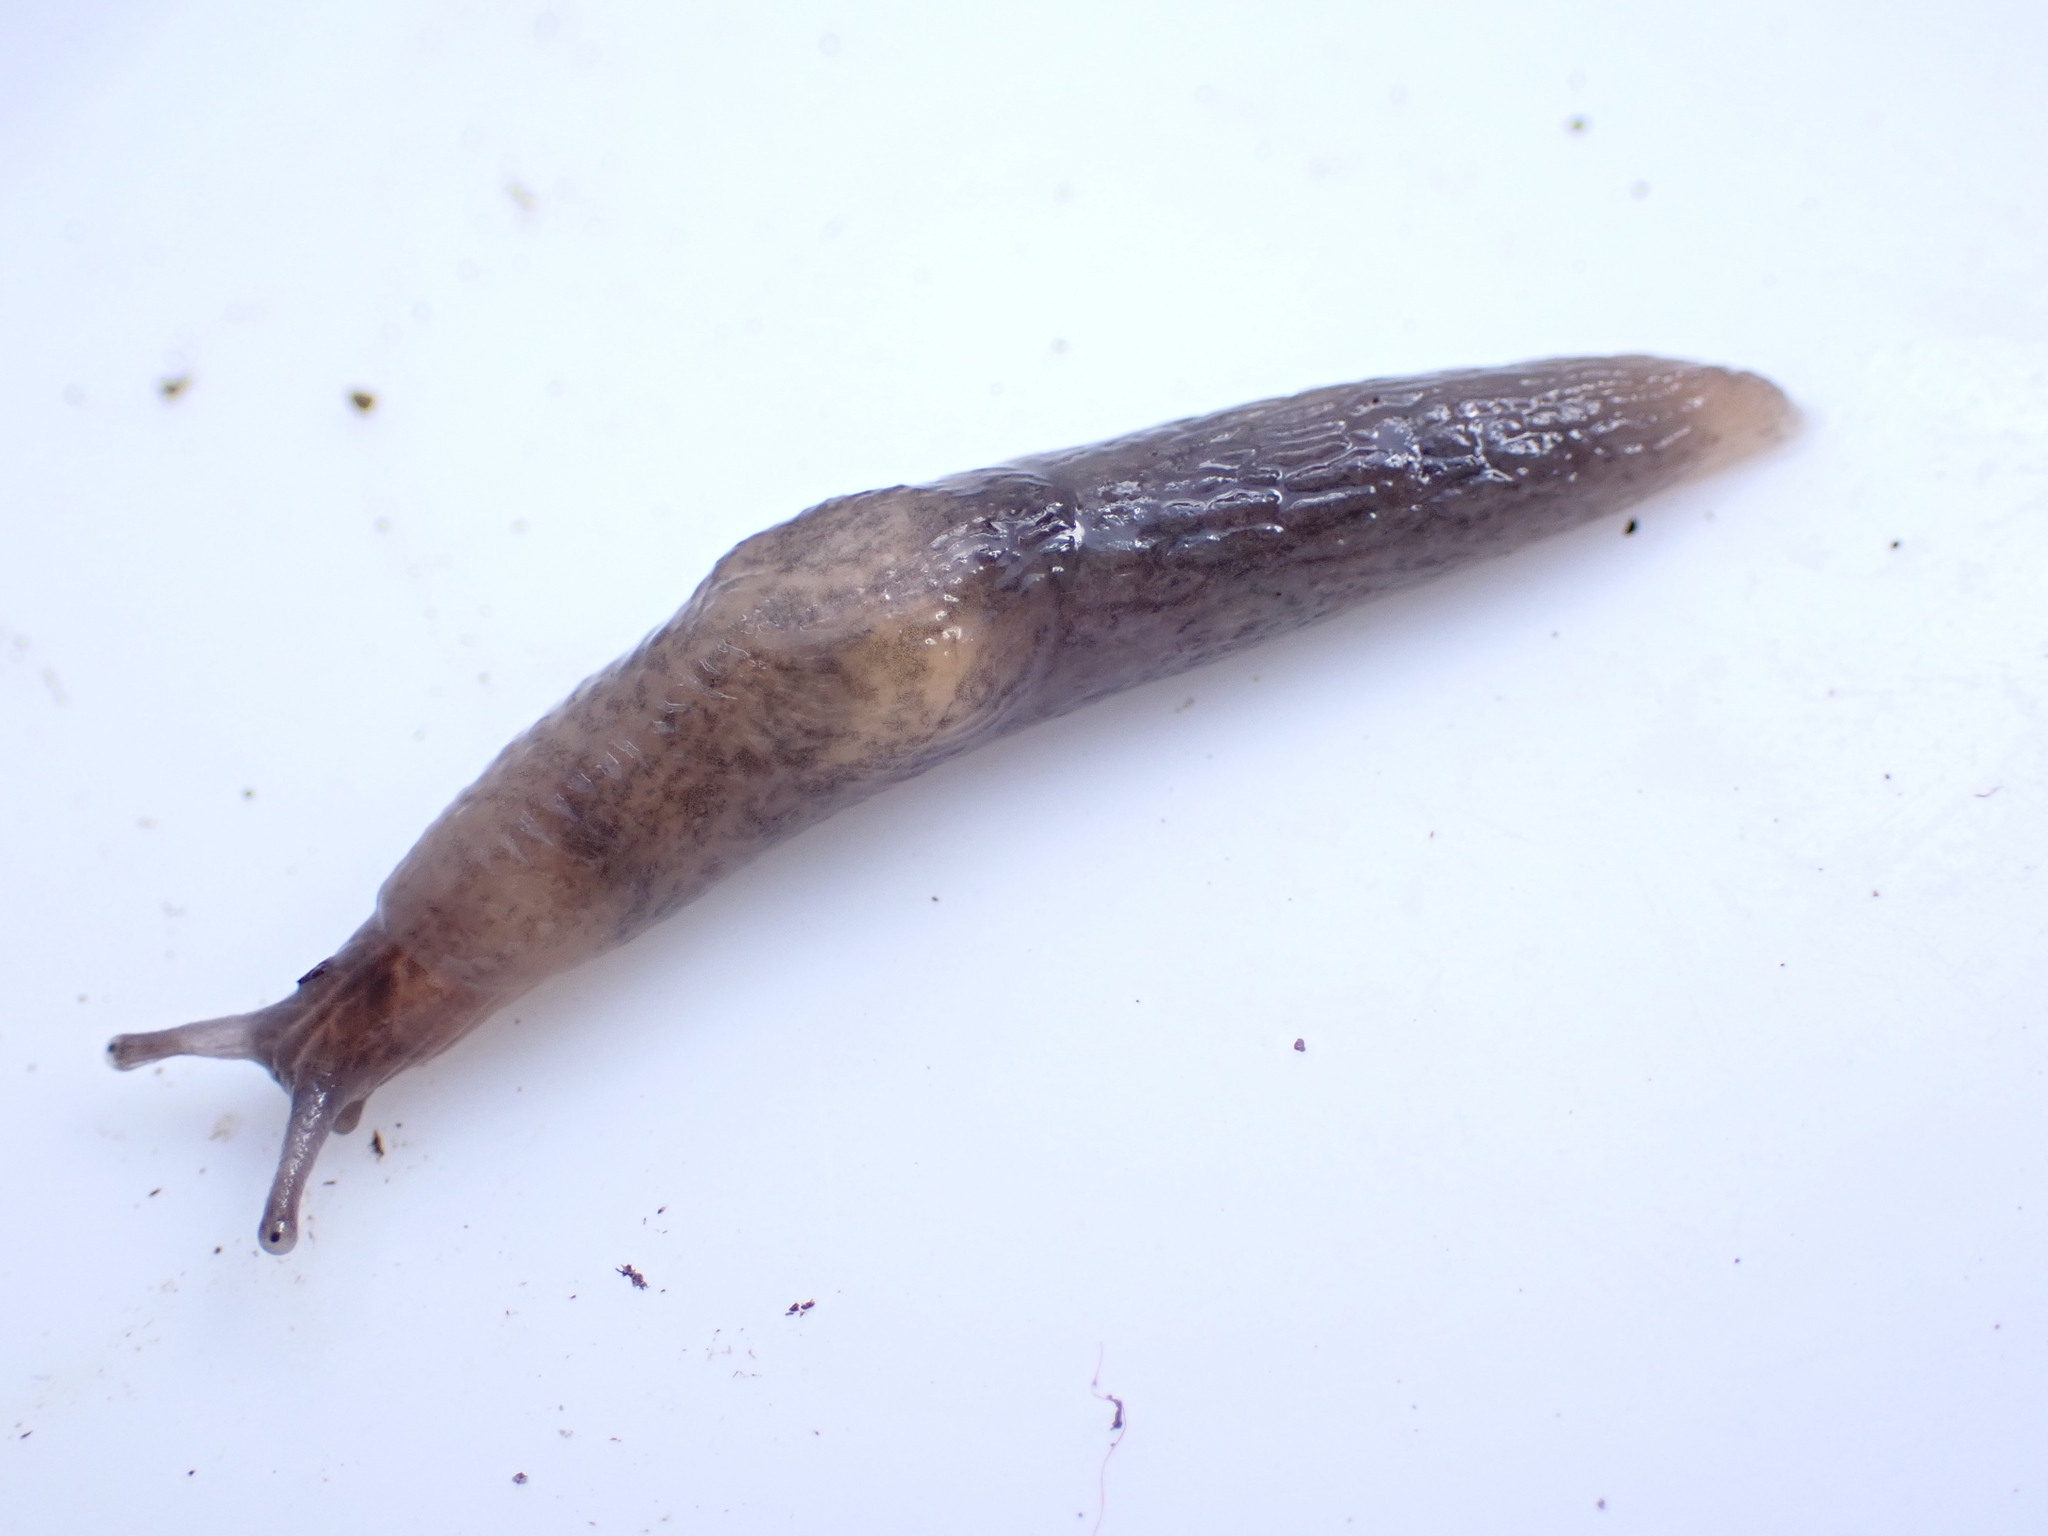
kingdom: Animalia
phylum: Mollusca
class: Gastropoda
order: Stylommatophora
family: Agriolimacidae
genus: Deroceras
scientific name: Deroceras reticulatum
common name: Gray field slug
